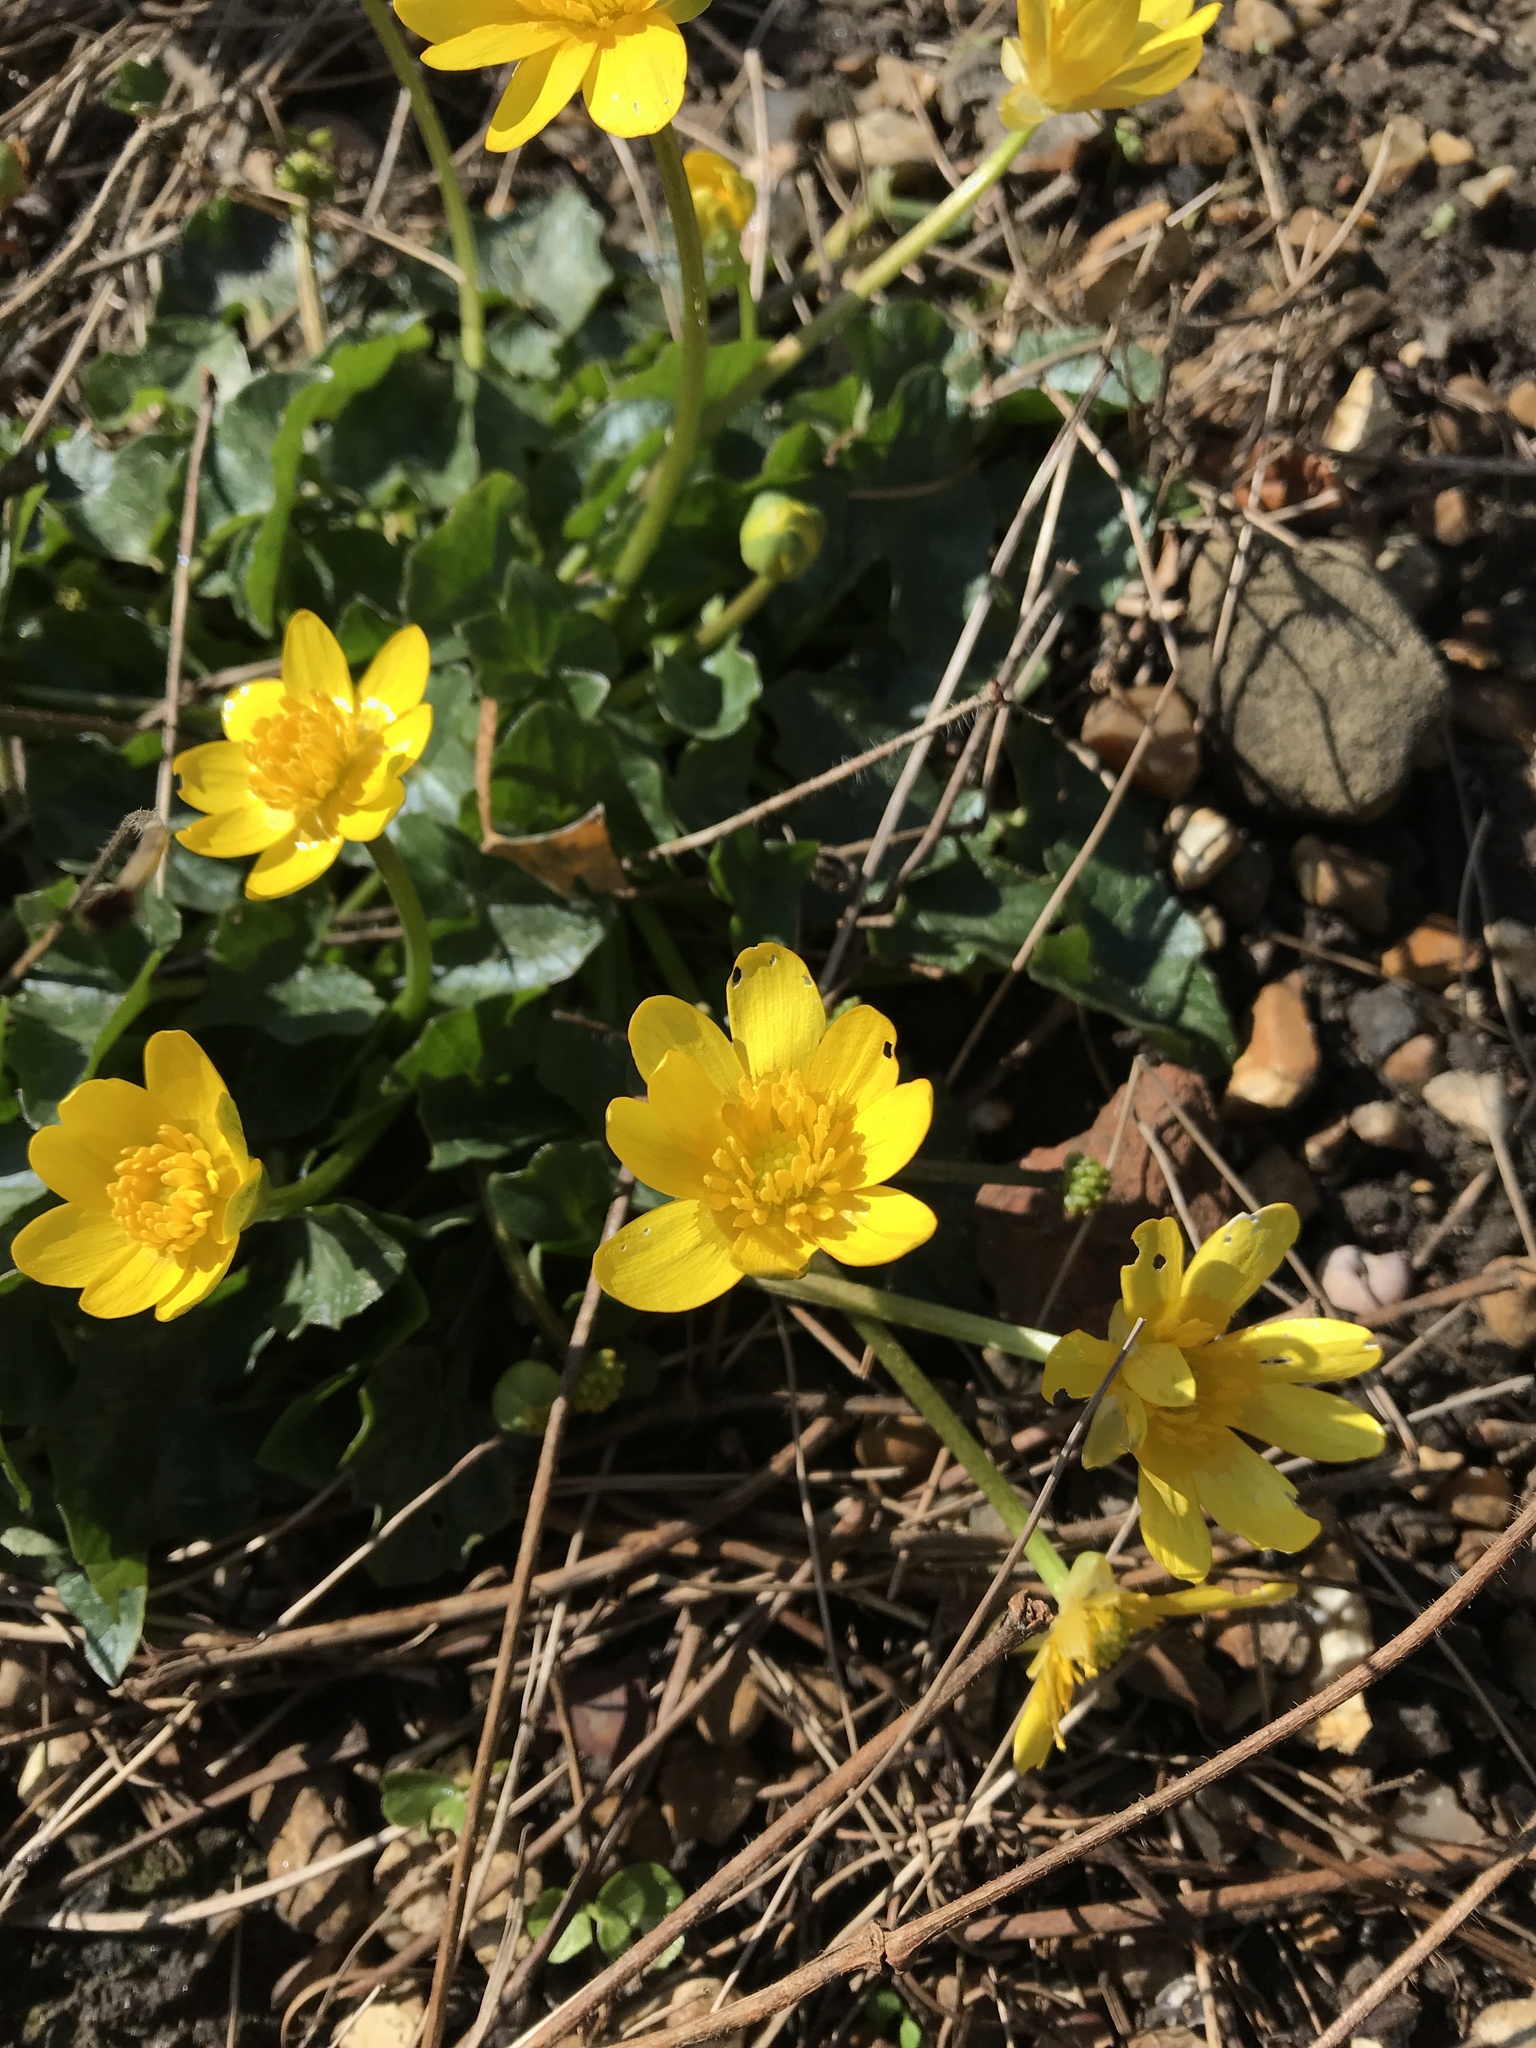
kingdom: Plantae
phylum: Tracheophyta
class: Magnoliopsida
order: Ranunculales
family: Ranunculaceae
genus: Ficaria
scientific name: Ficaria verna
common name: Lesser celandine
